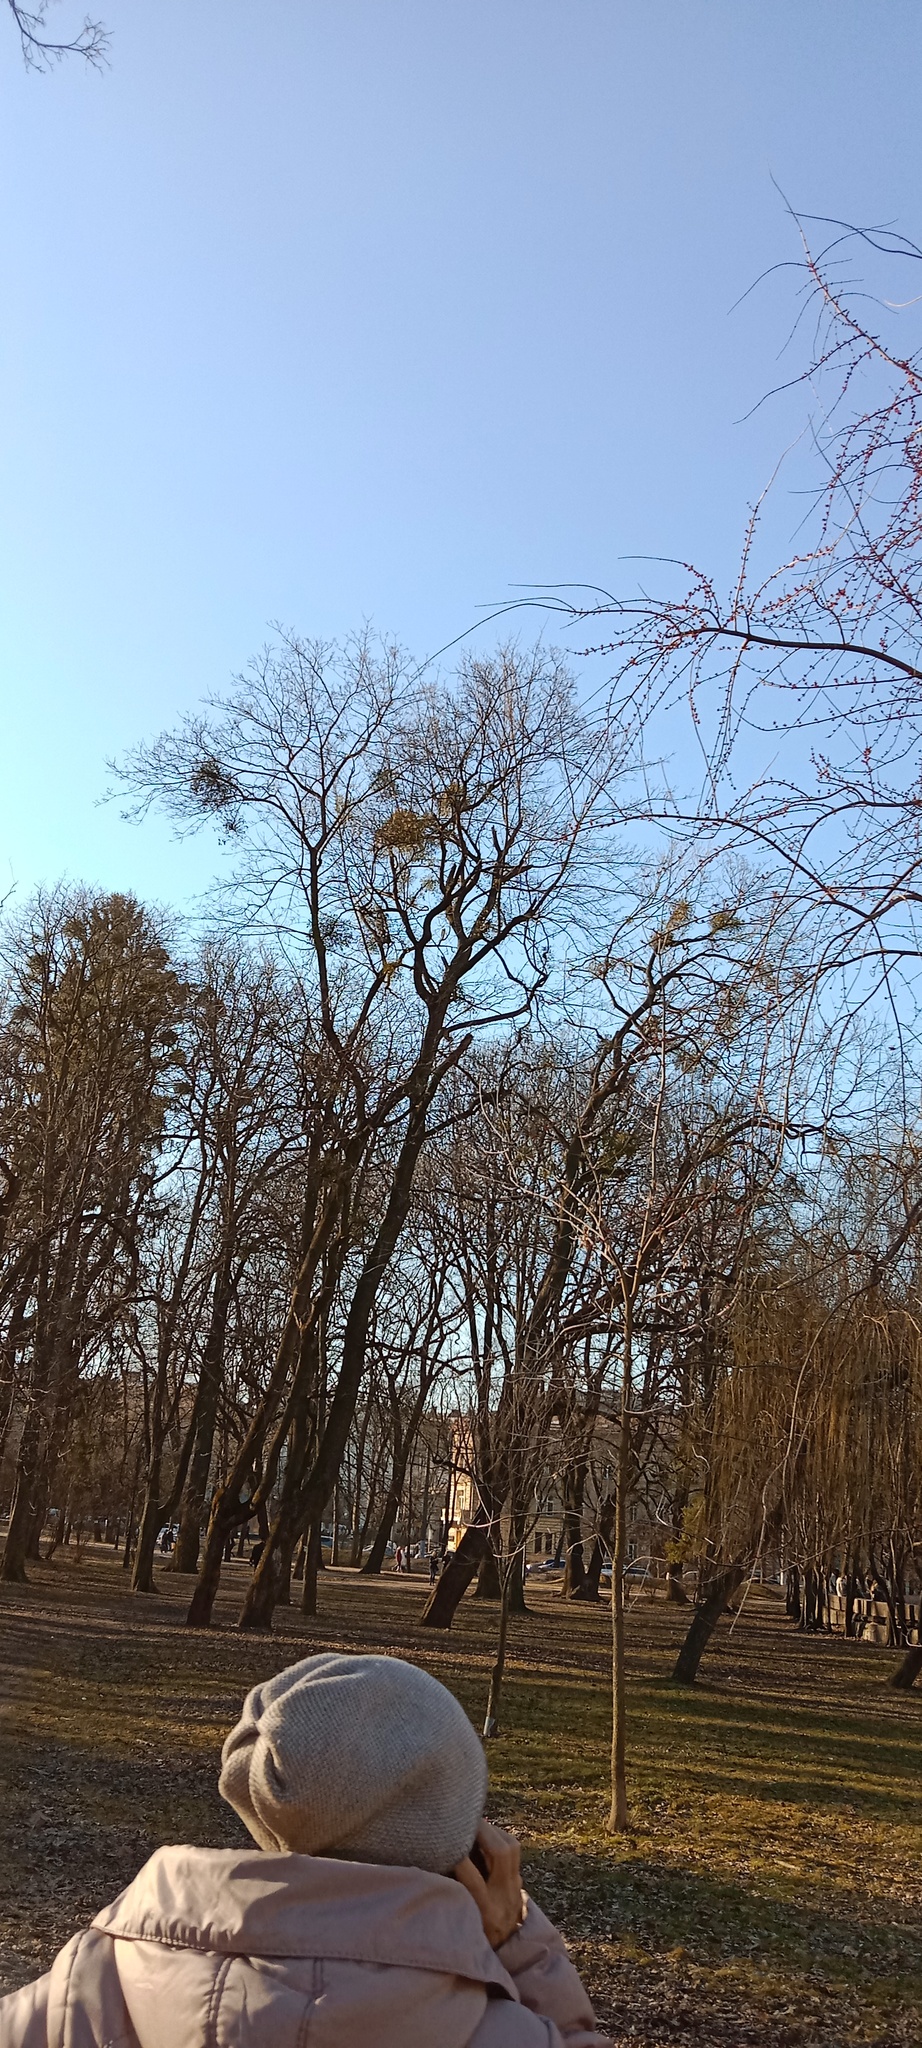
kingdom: Plantae
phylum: Tracheophyta
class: Magnoliopsida
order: Santalales
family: Viscaceae
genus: Viscum
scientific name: Viscum album
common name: Mistletoe
